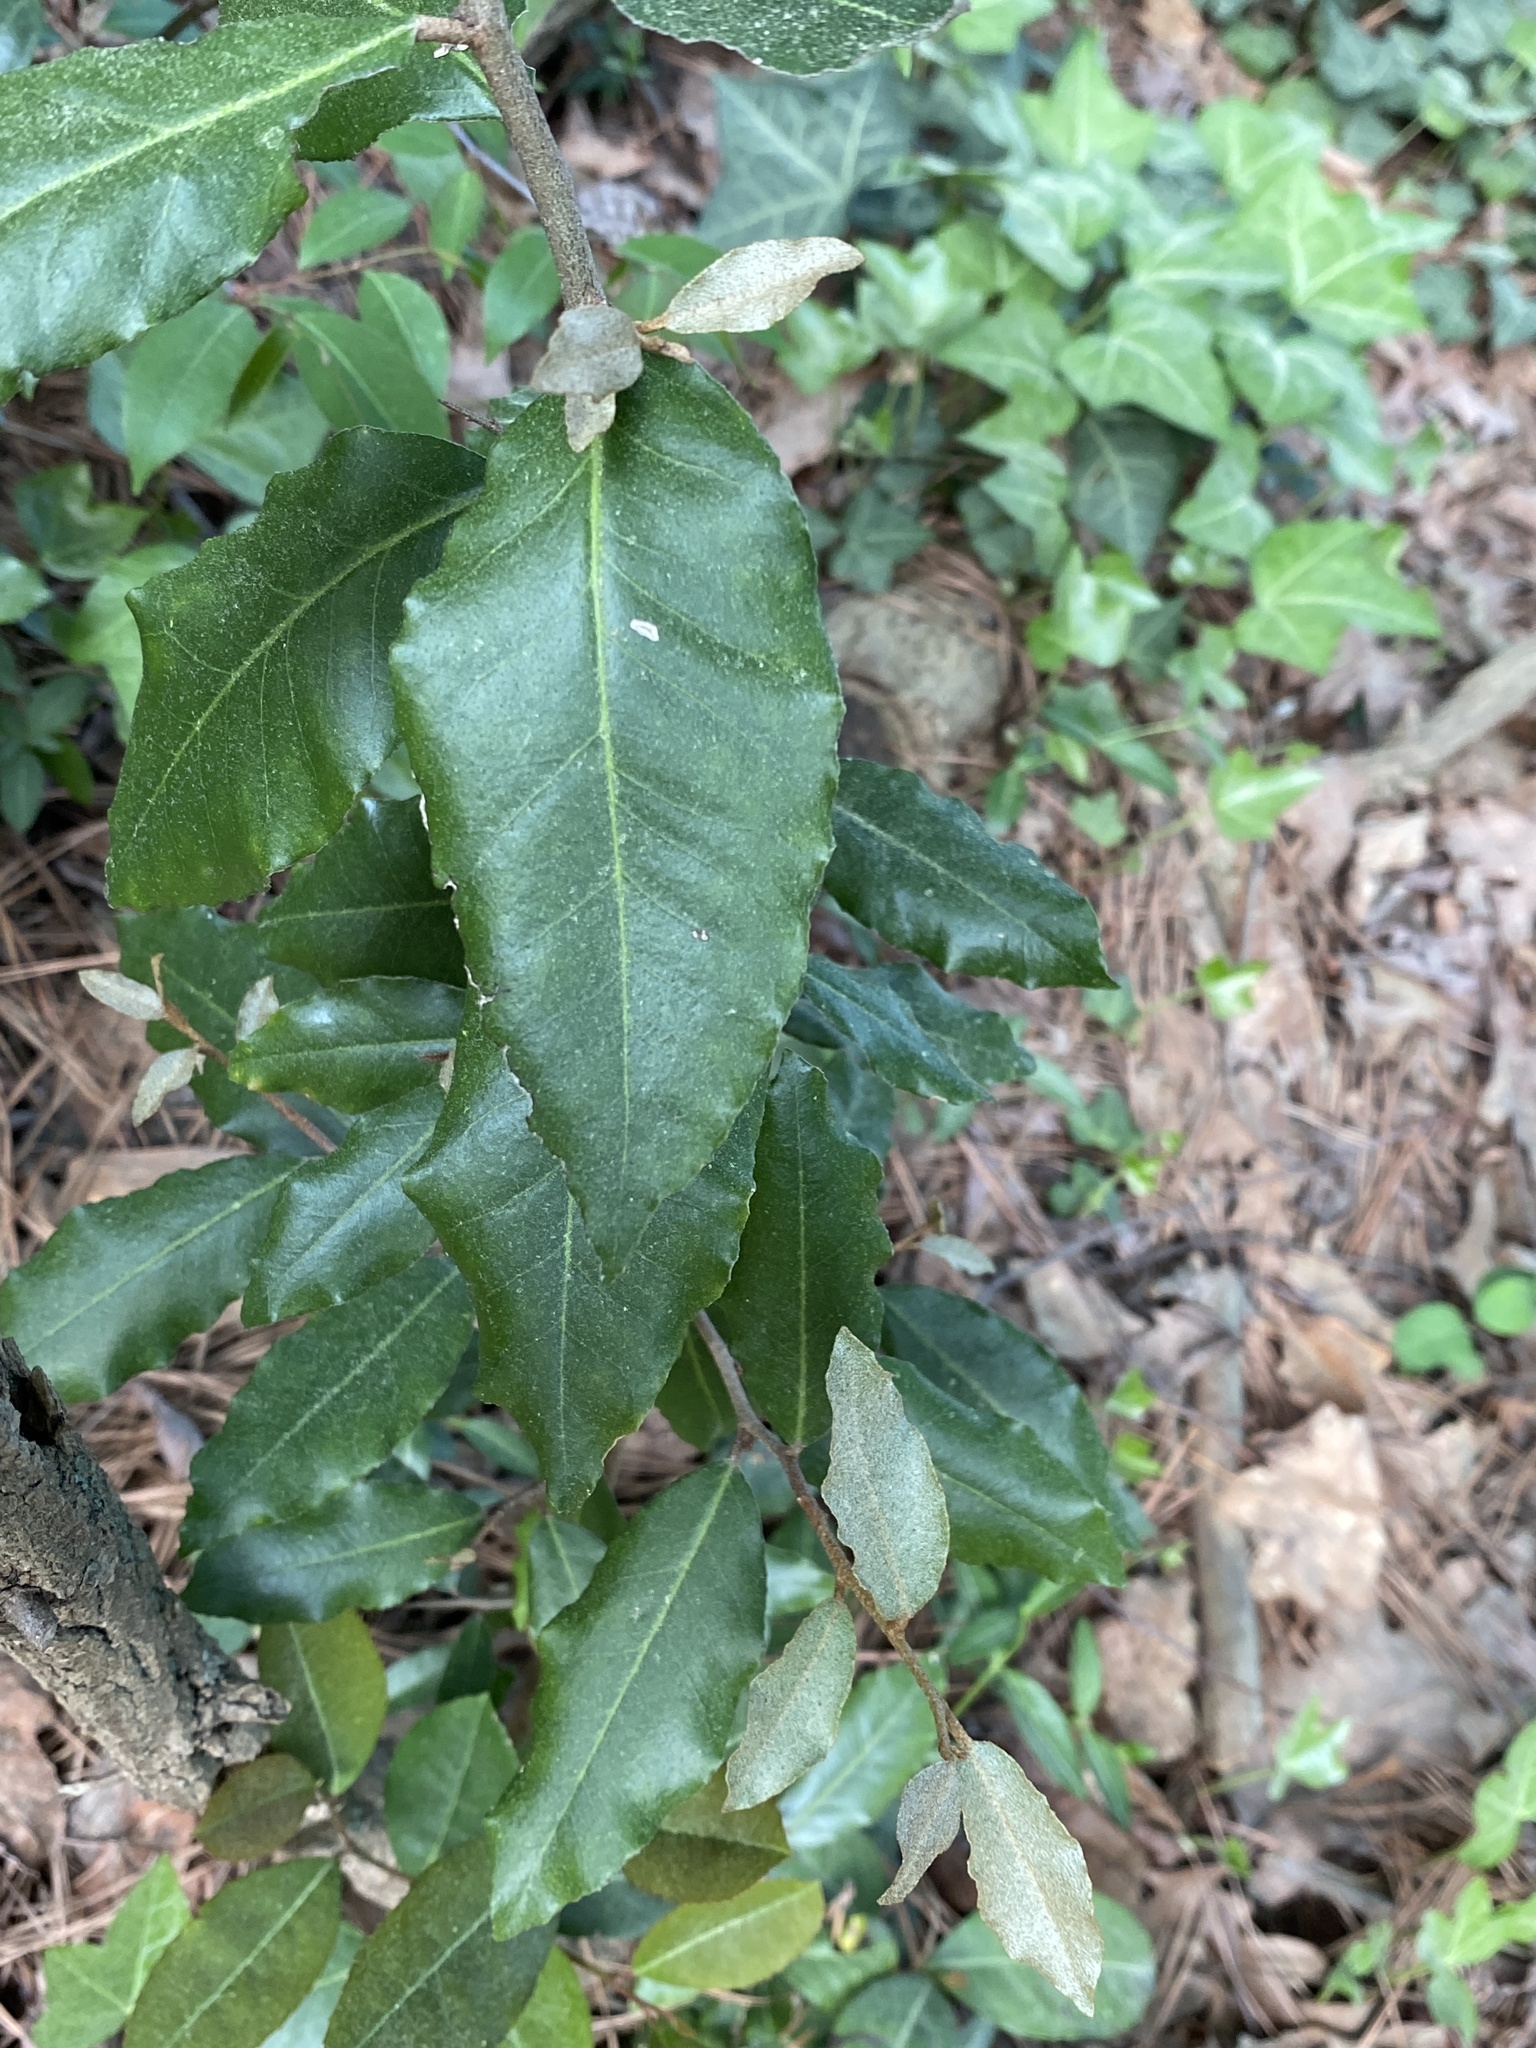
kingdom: Plantae
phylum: Tracheophyta
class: Magnoliopsida
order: Rosales
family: Elaeagnaceae
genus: Elaeagnus
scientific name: Elaeagnus pungens
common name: Spiny oleaster
